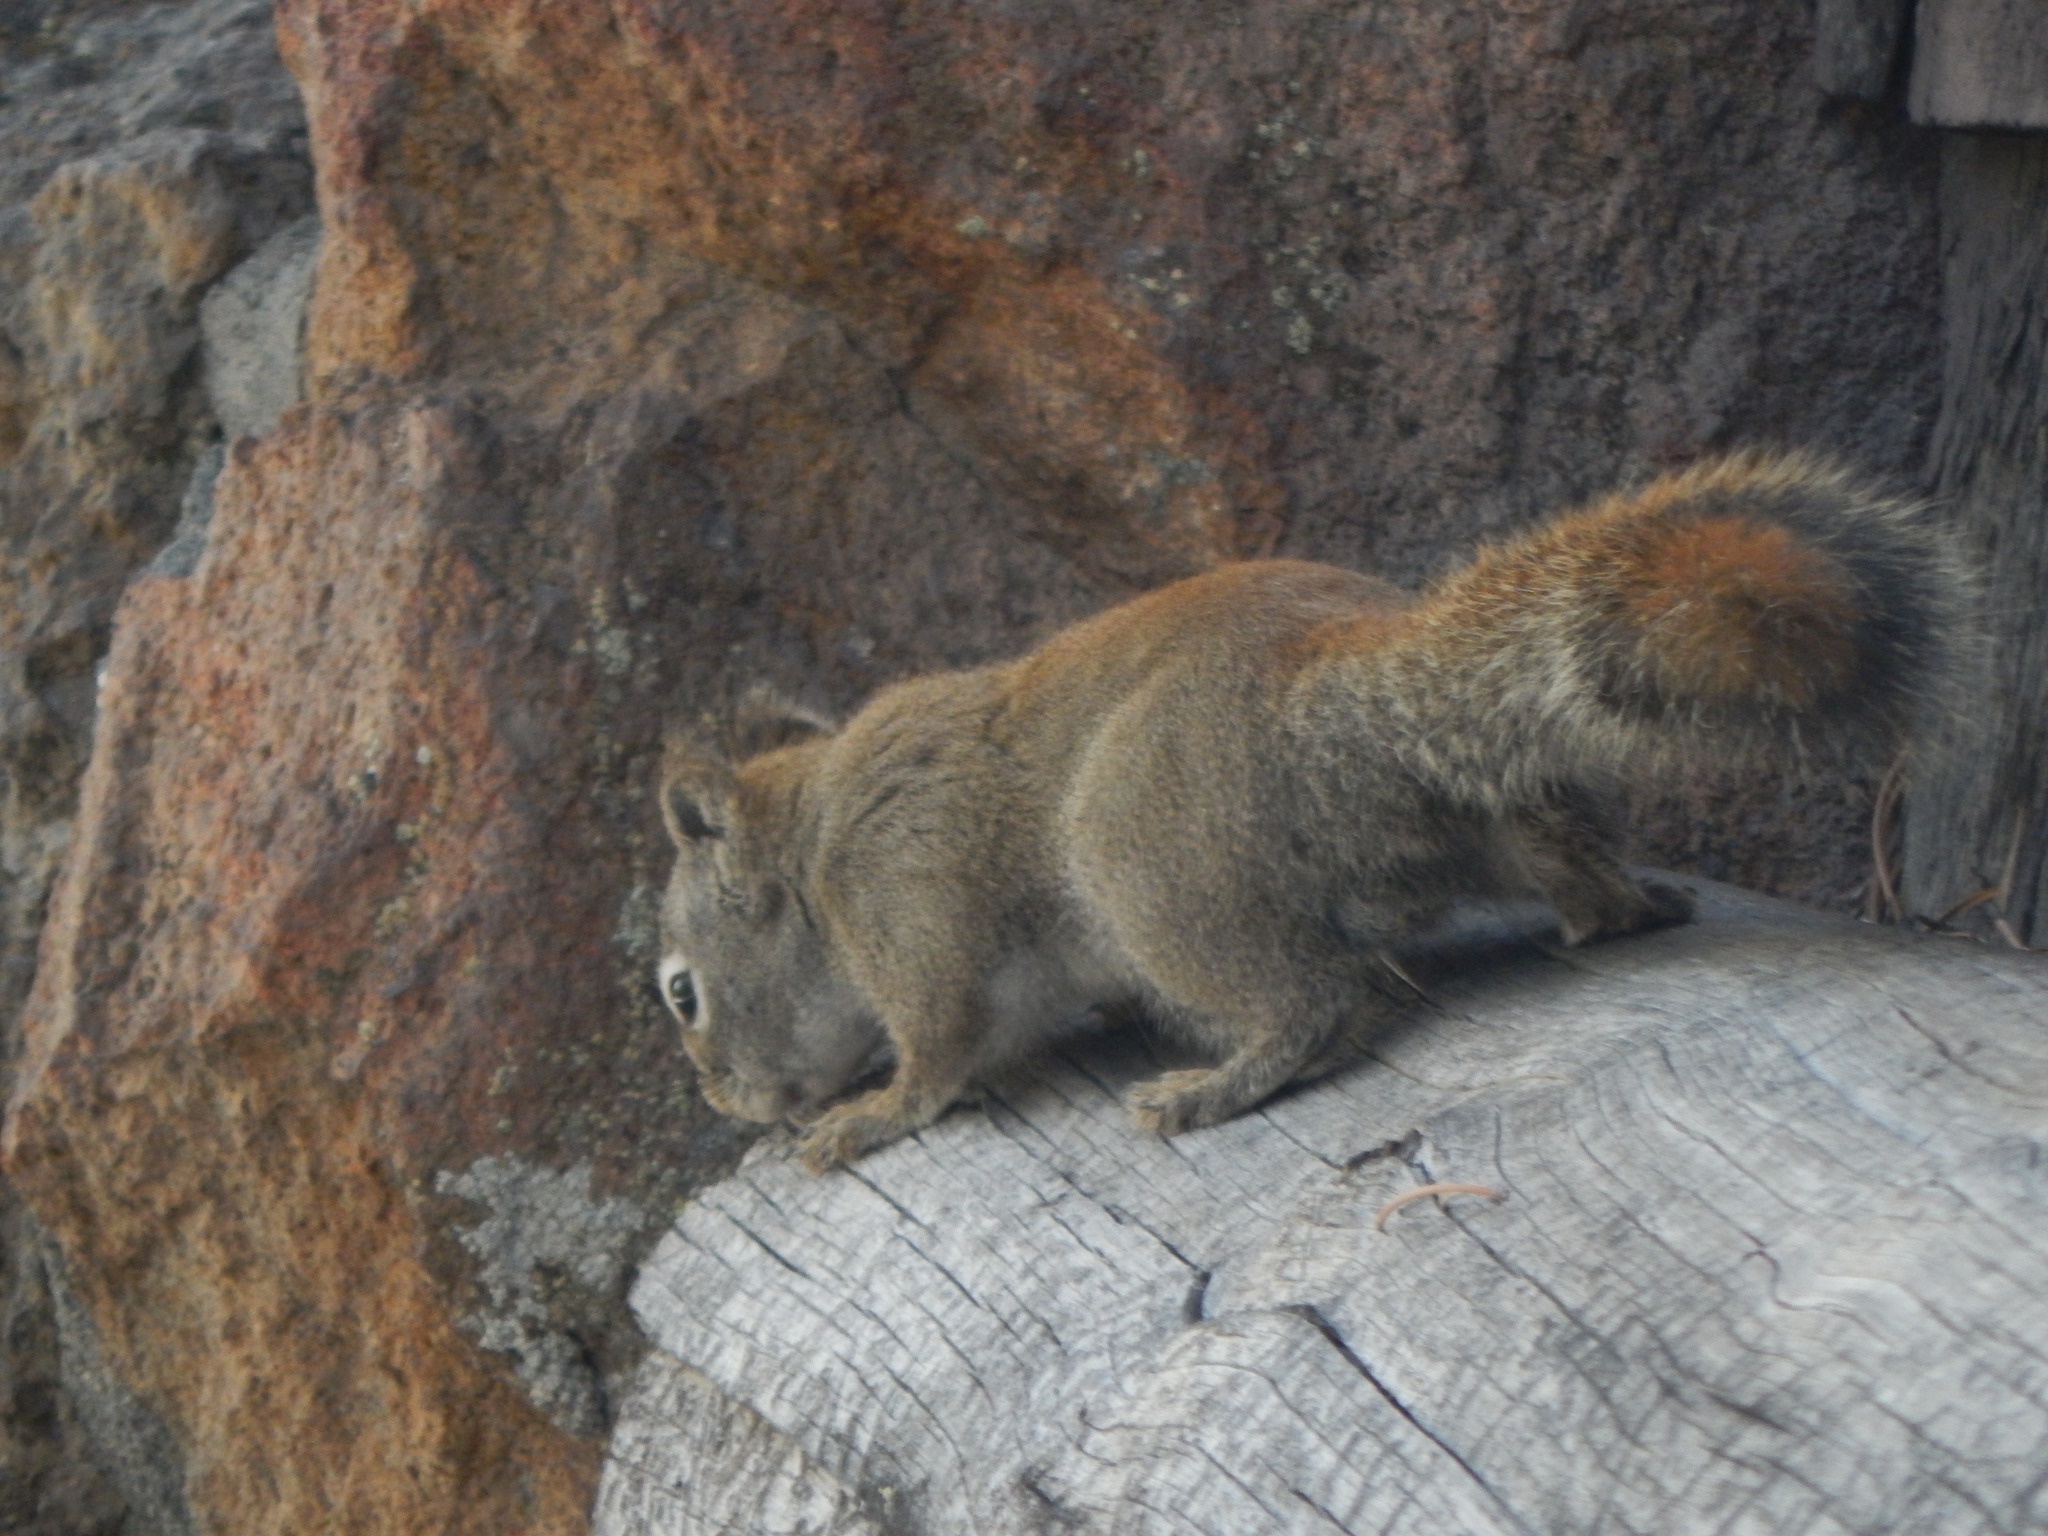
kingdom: Animalia
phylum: Chordata
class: Mammalia
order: Rodentia
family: Sciuridae
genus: Tamiasciurus
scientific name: Tamiasciurus hudsonicus
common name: Red squirrel
